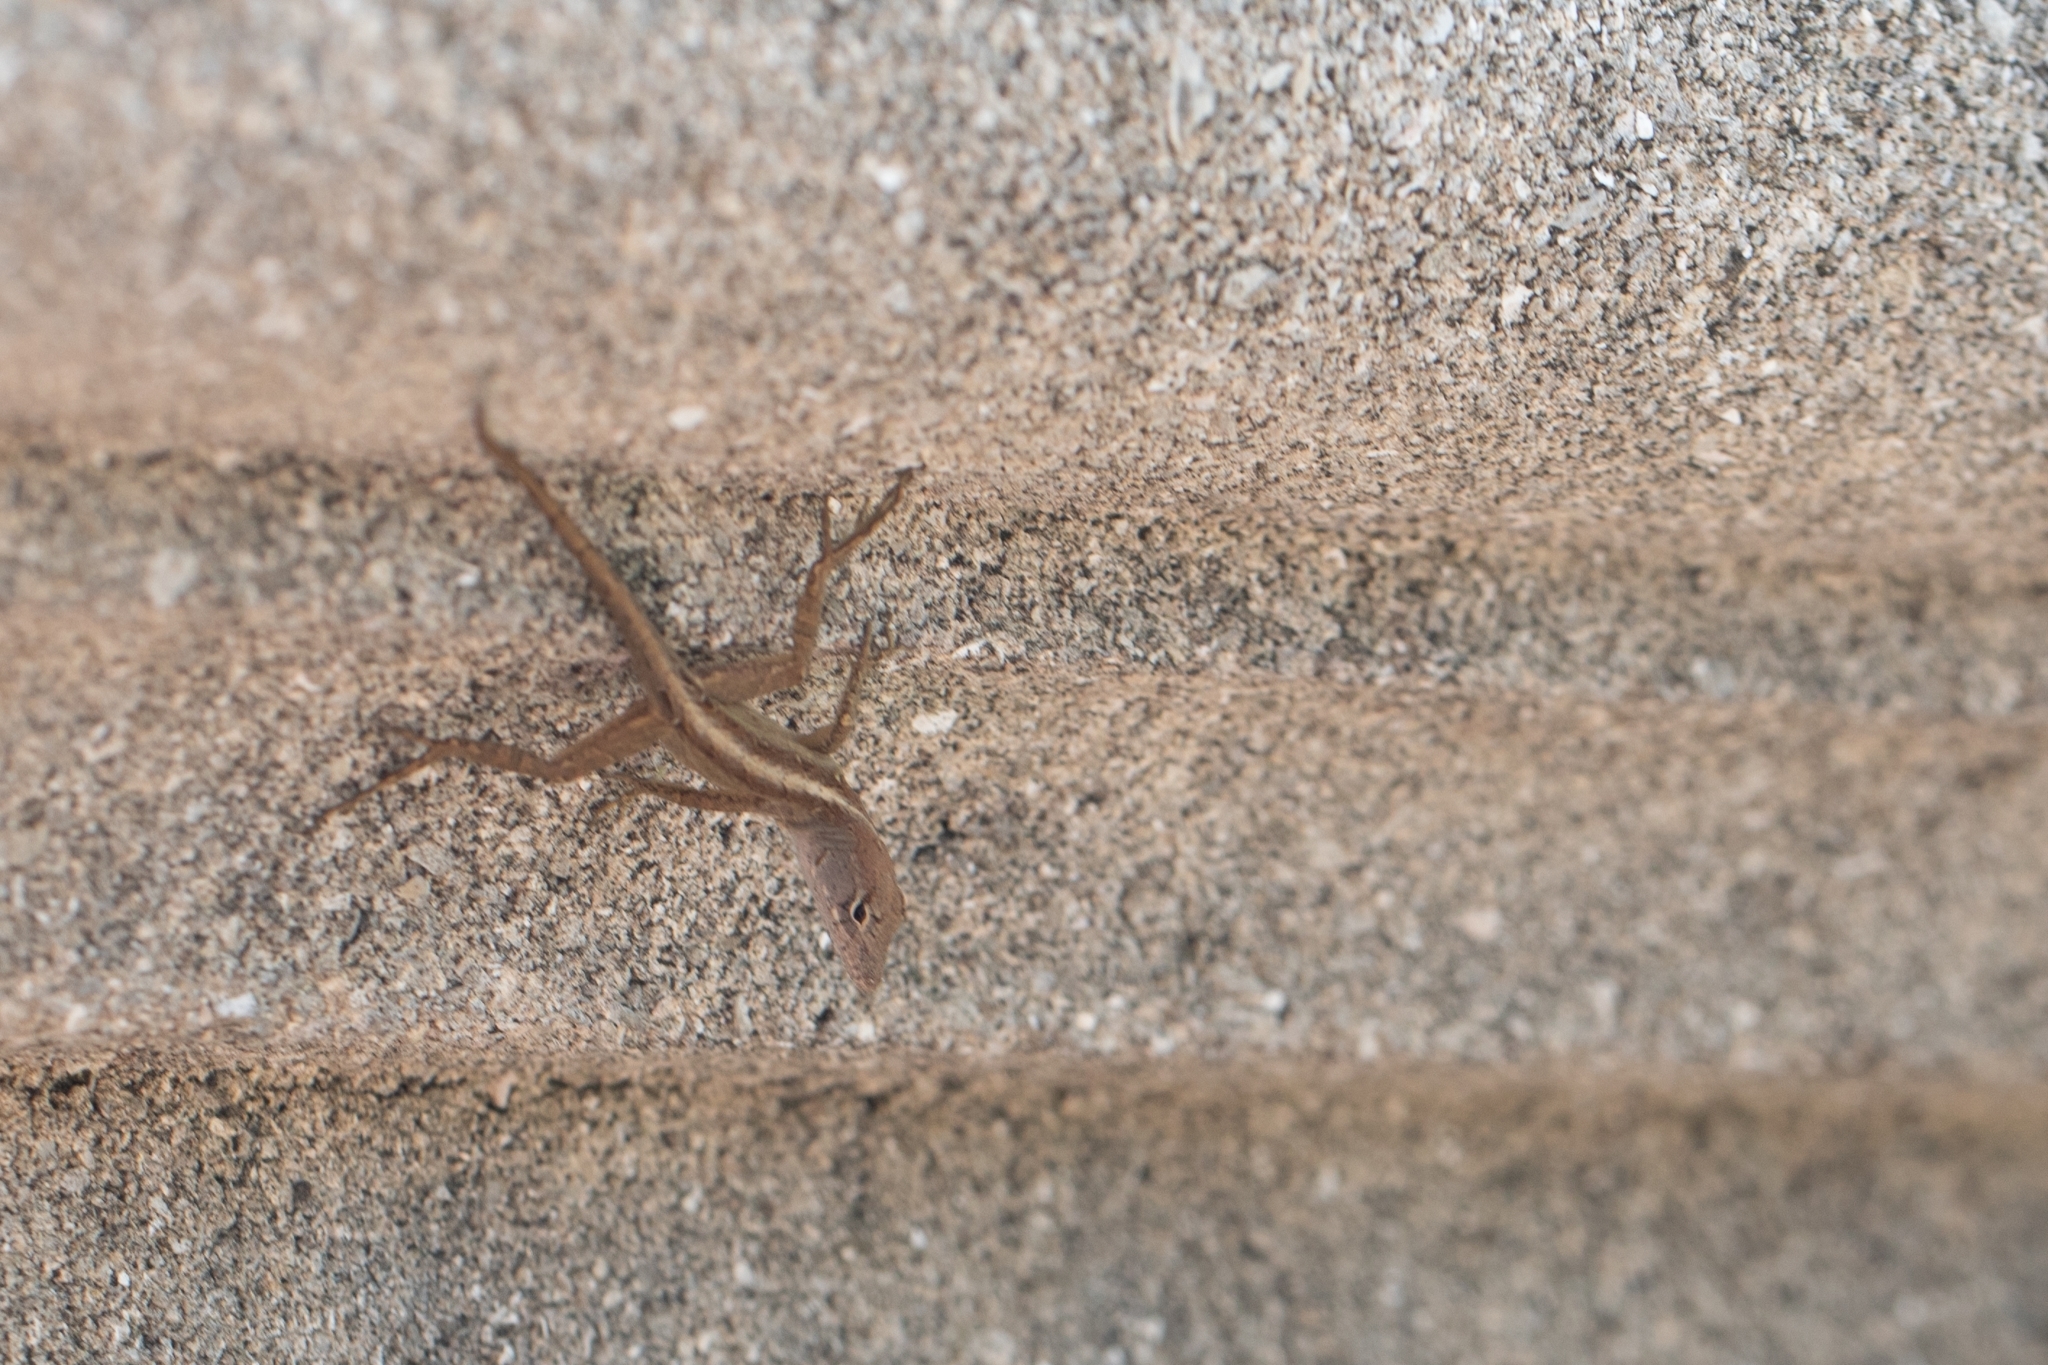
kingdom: Animalia
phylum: Chordata
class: Squamata
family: Dactyloidae
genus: Anolis
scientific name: Anolis sagrei
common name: Brown anole
